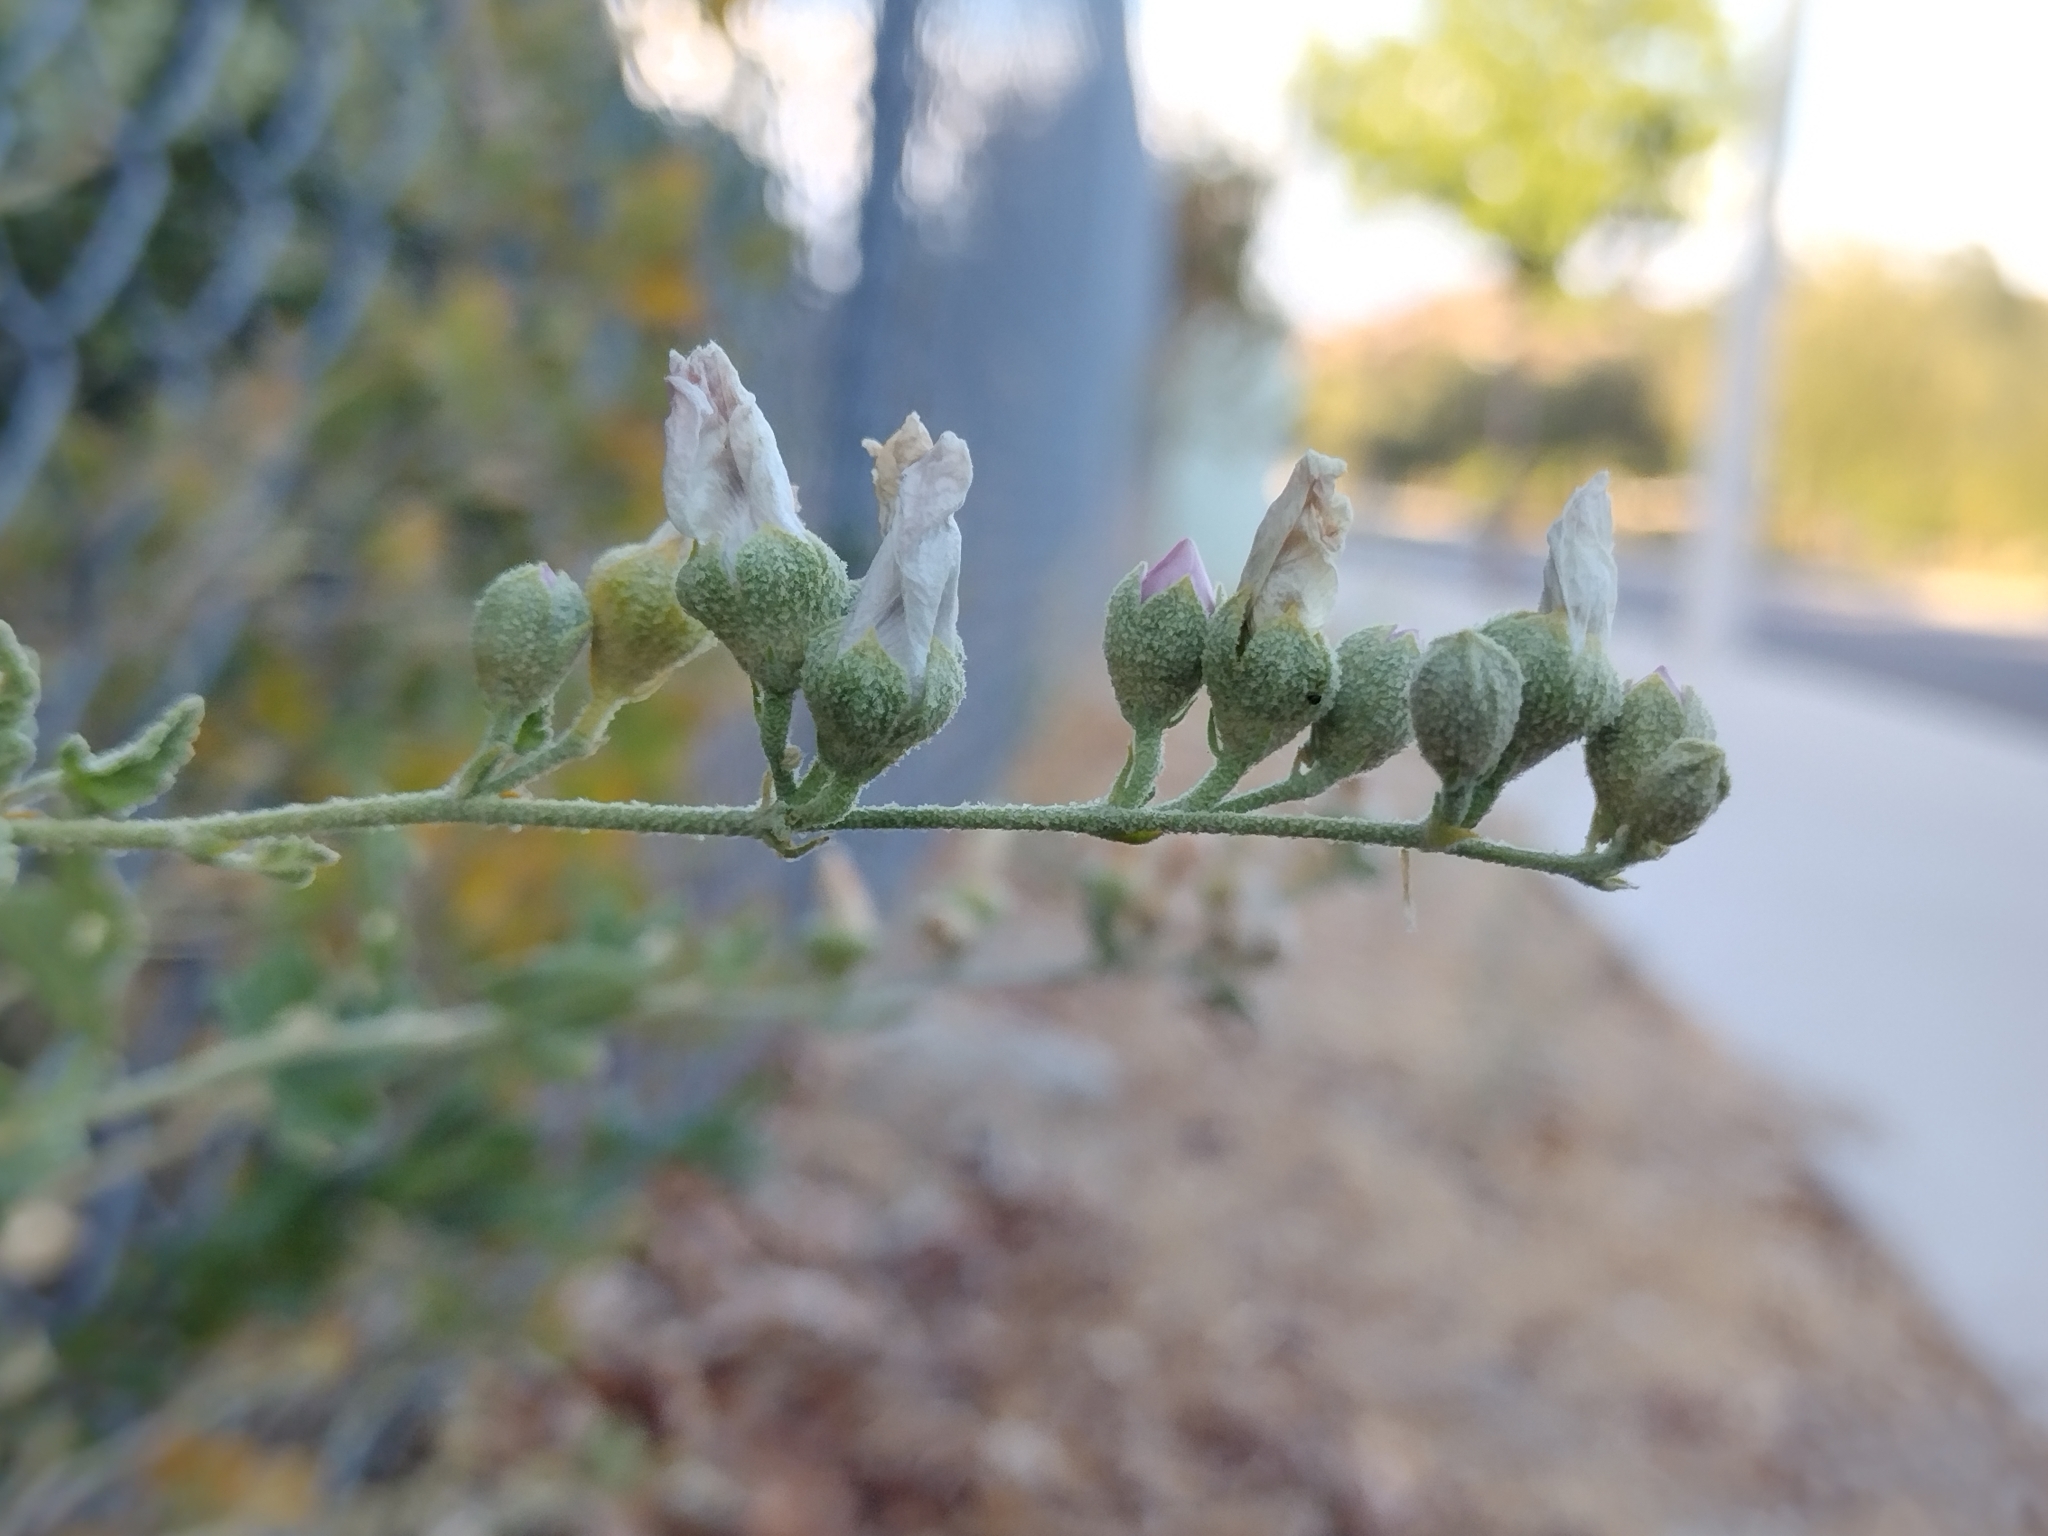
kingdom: Plantae
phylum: Tracheophyta
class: Magnoliopsida
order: Malvales
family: Malvaceae
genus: Malacothamnus
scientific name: Malacothamnus fasciculatus
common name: Sant cruz island bush-mallow
